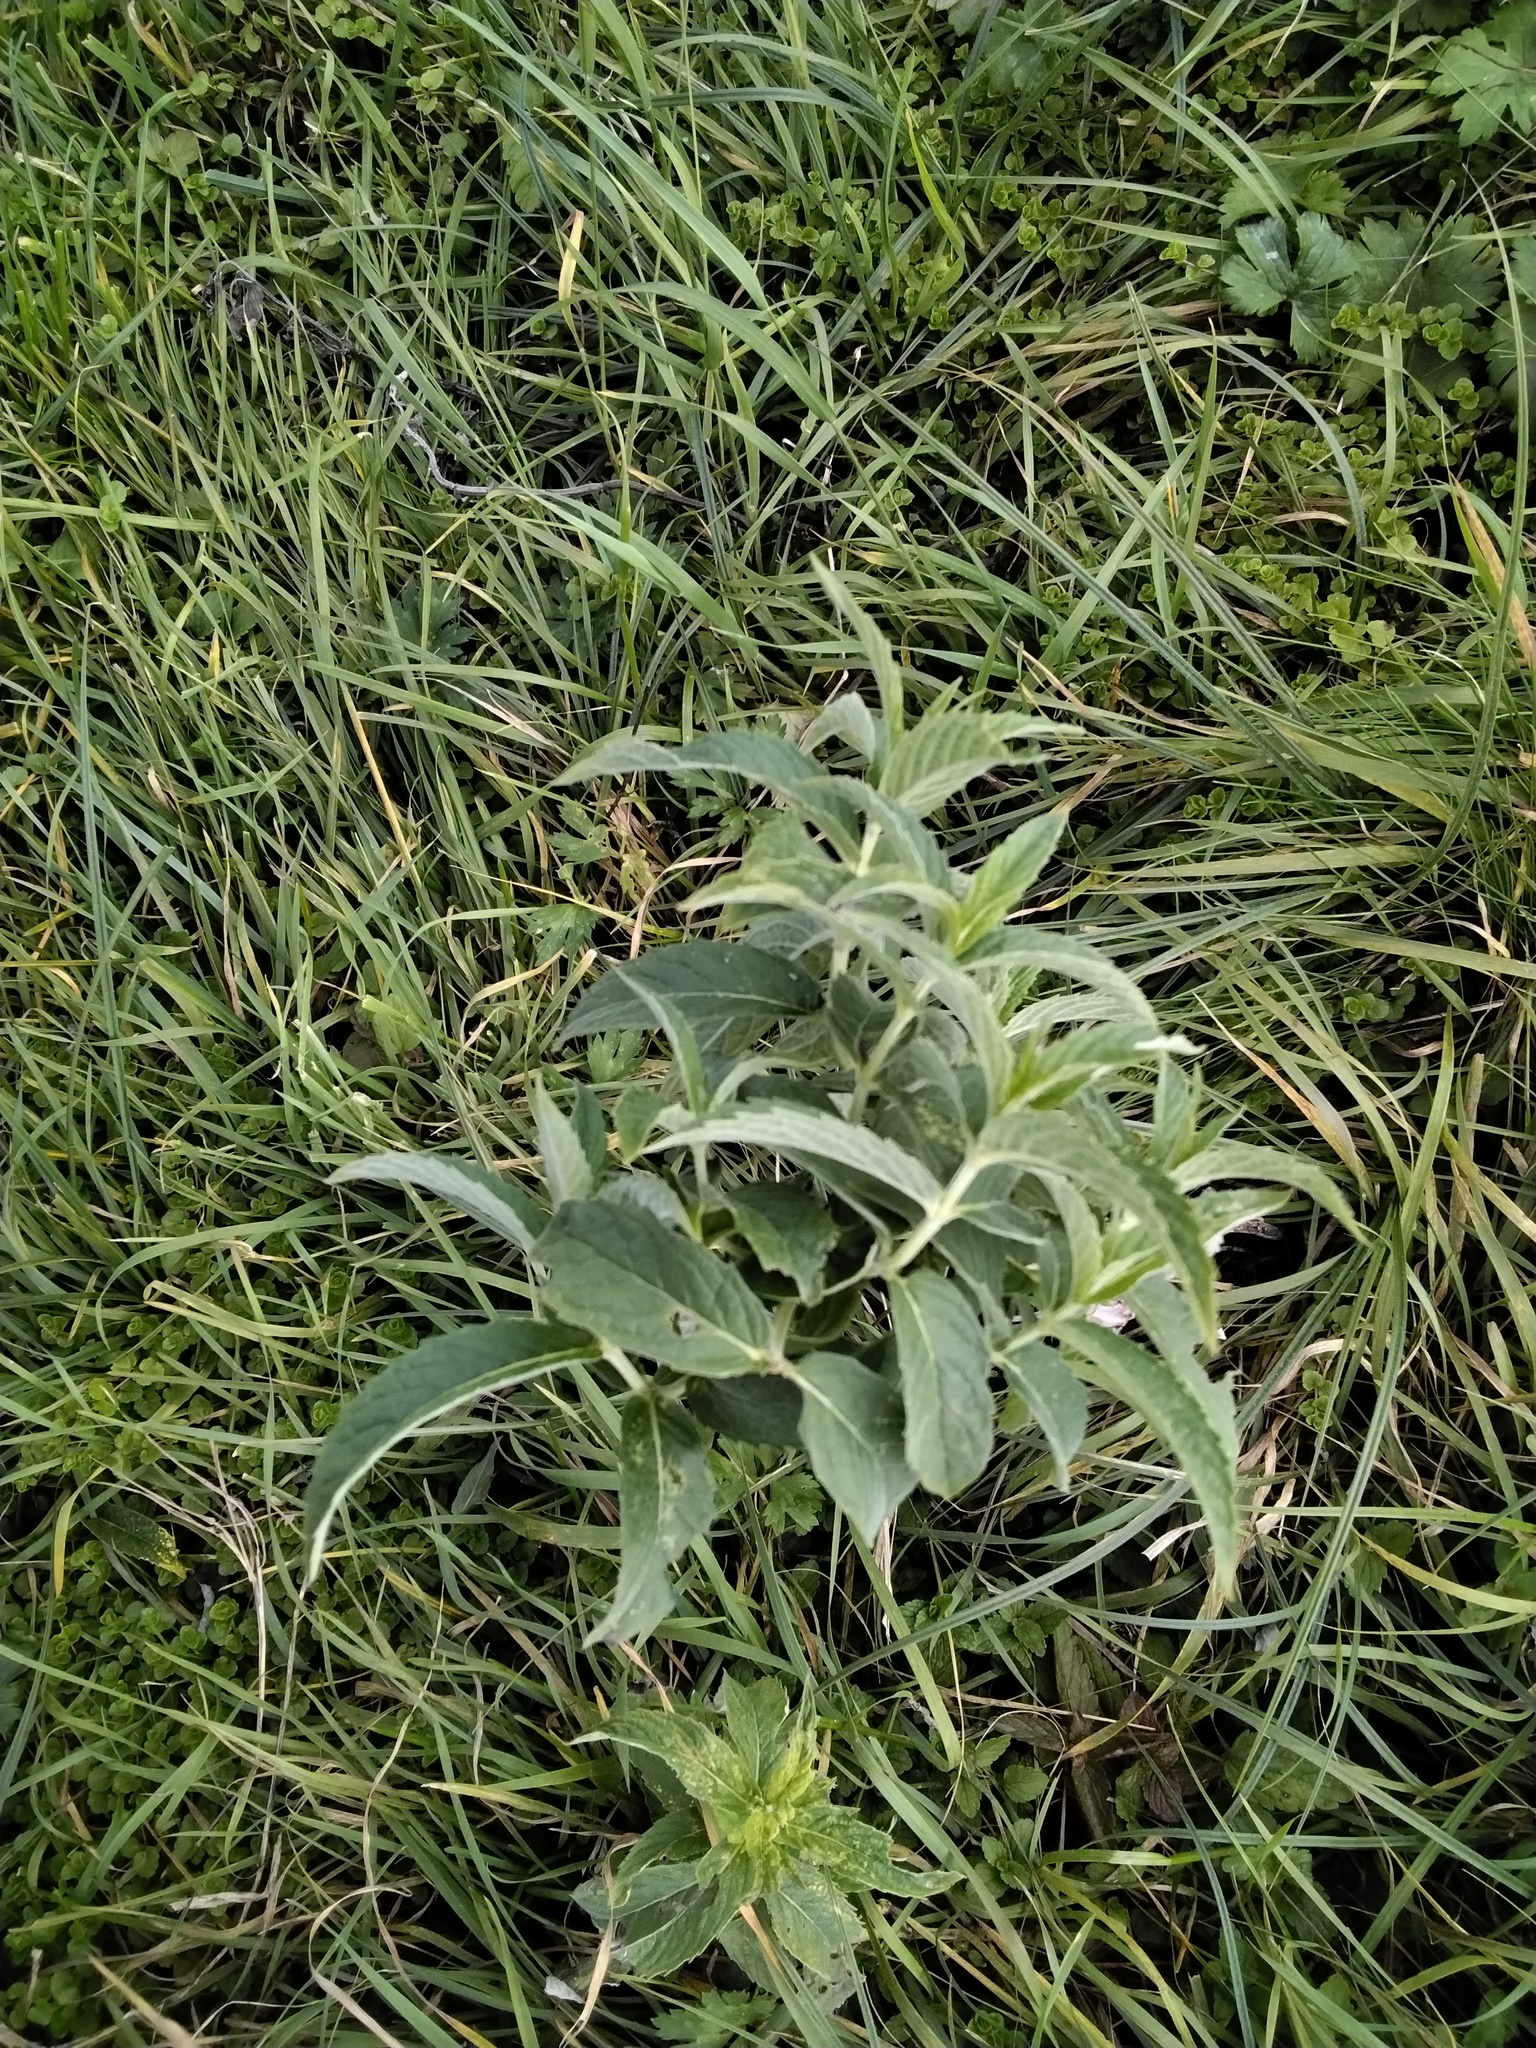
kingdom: Plantae
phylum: Tracheophyta
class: Magnoliopsida
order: Lamiales
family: Lamiaceae
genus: Mentha
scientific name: Mentha longifolia
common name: Horse mint
